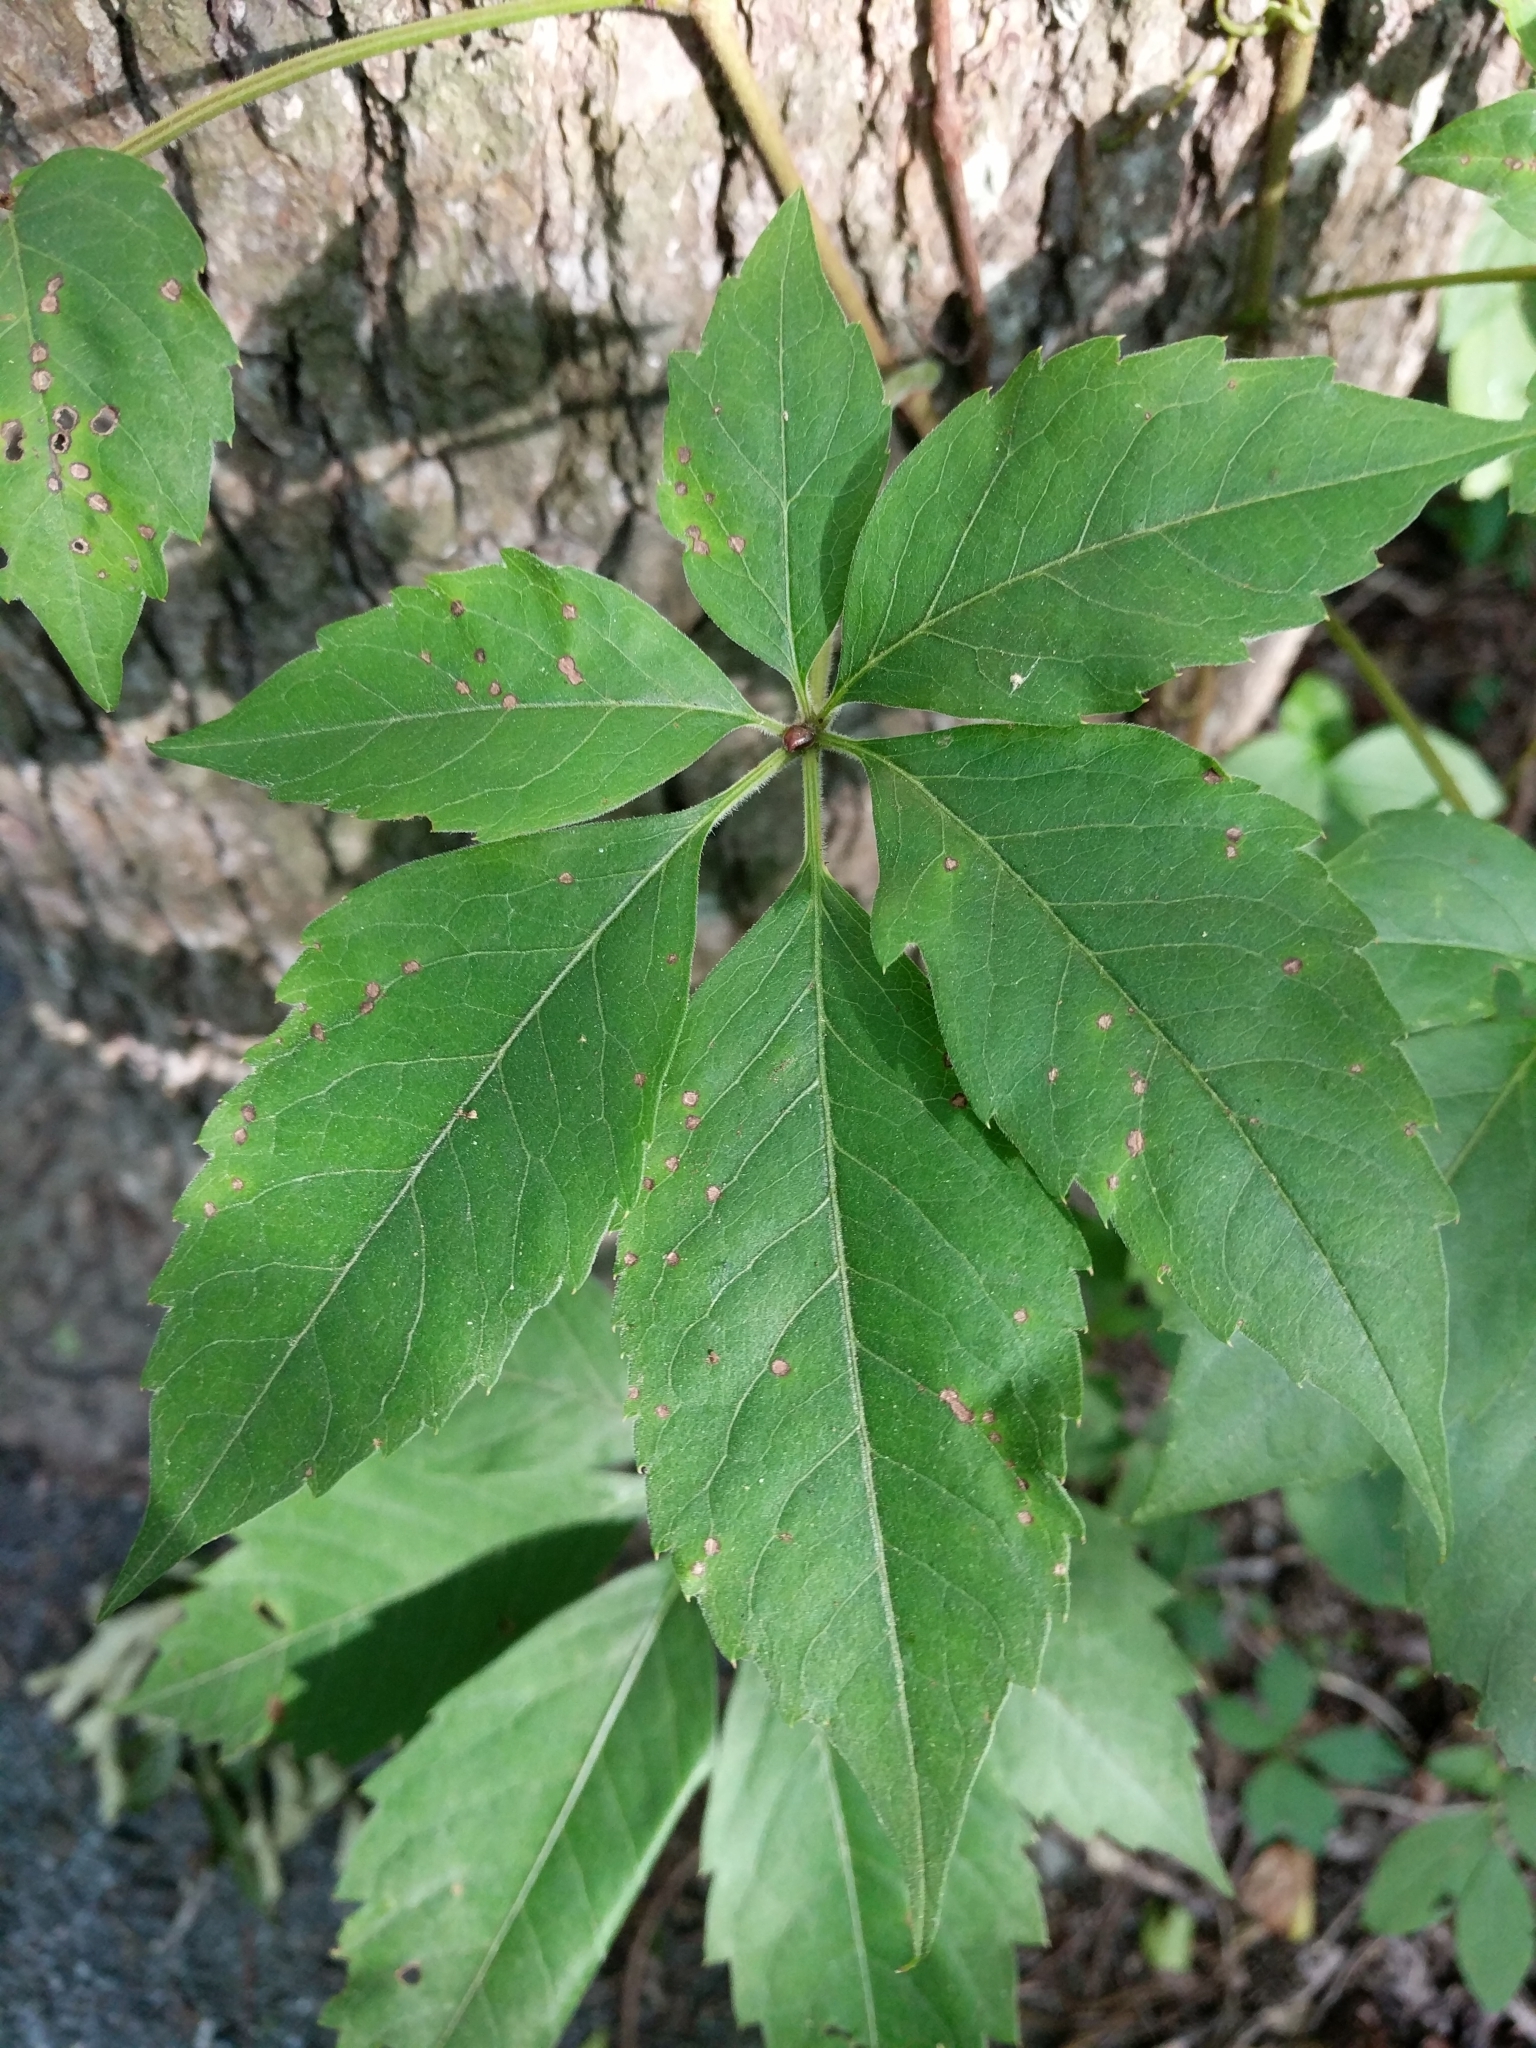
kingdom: Plantae
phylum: Tracheophyta
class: Magnoliopsida
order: Vitales
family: Vitaceae
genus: Parthenocissus
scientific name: Parthenocissus quinquefolia
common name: Virginia-creeper
